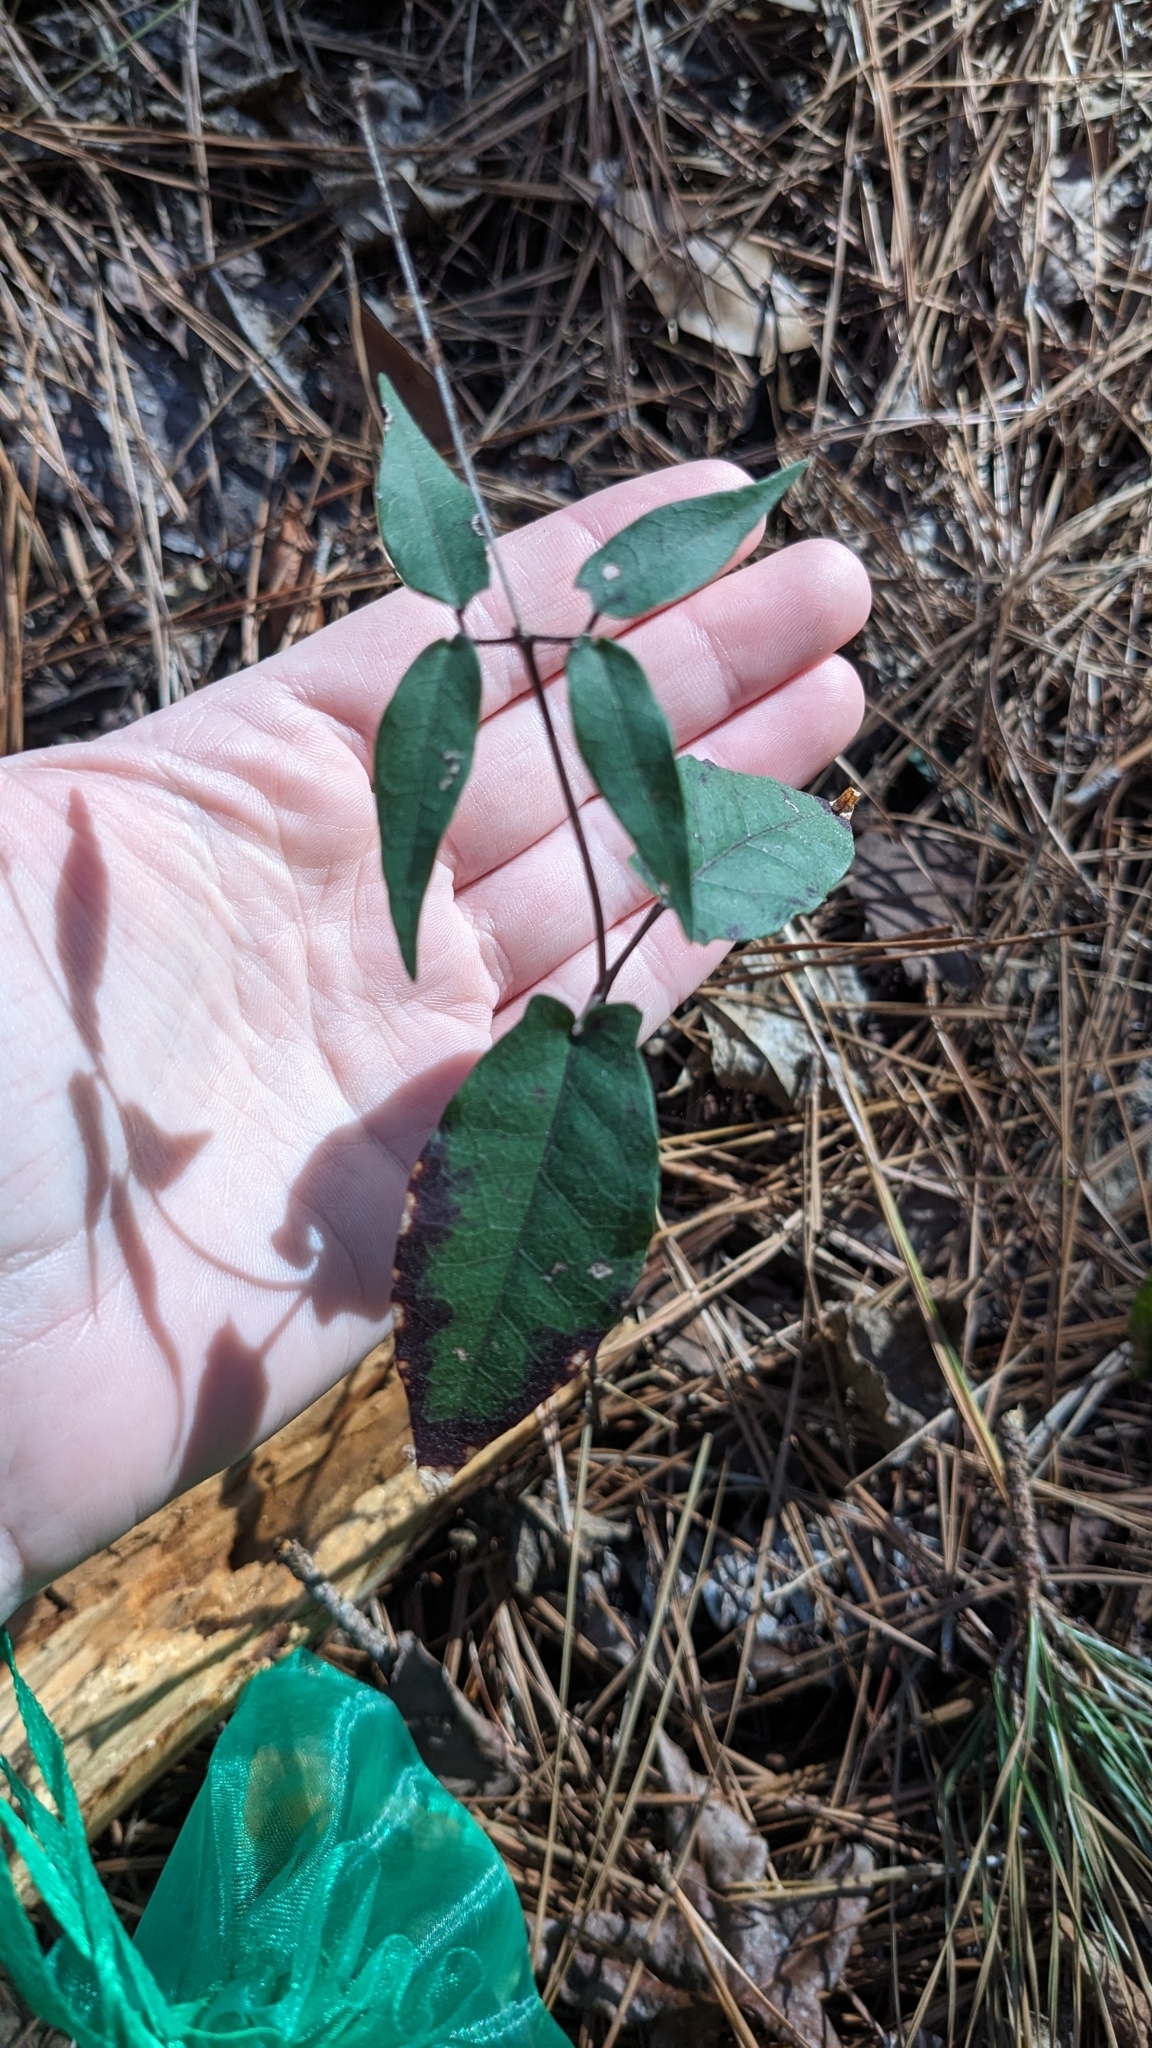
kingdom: Plantae
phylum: Tracheophyta
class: Magnoliopsida
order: Lamiales
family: Bignoniaceae
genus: Bignonia
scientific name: Bignonia capreolata
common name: Crossvine
